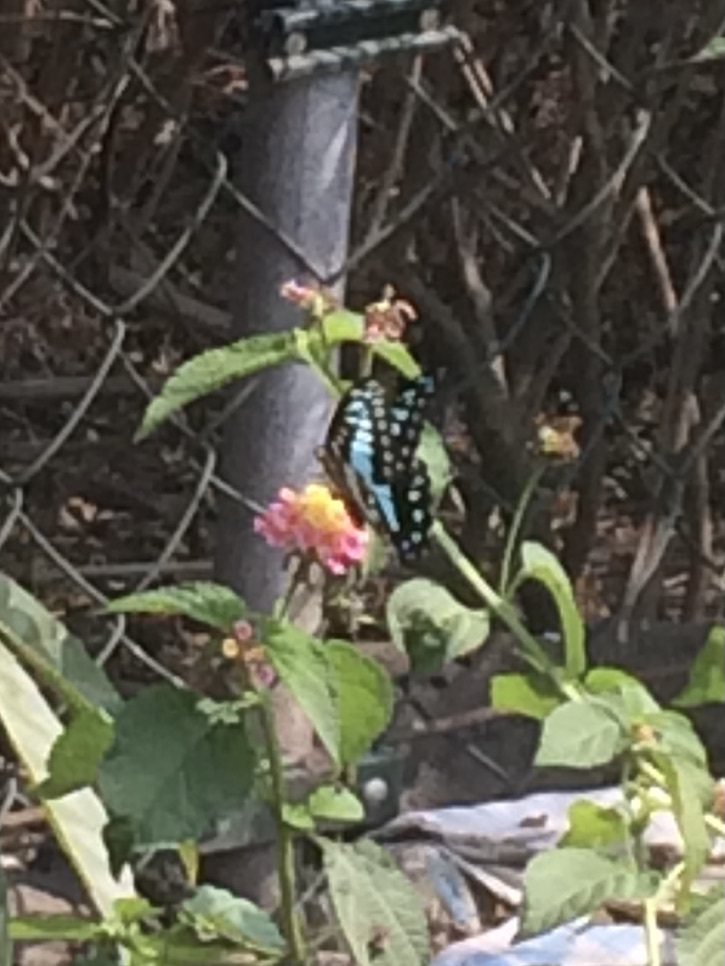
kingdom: Animalia
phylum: Arthropoda
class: Insecta
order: Lepidoptera
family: Papilionidae
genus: Graphium
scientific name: Graphium doson
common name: Common jay
